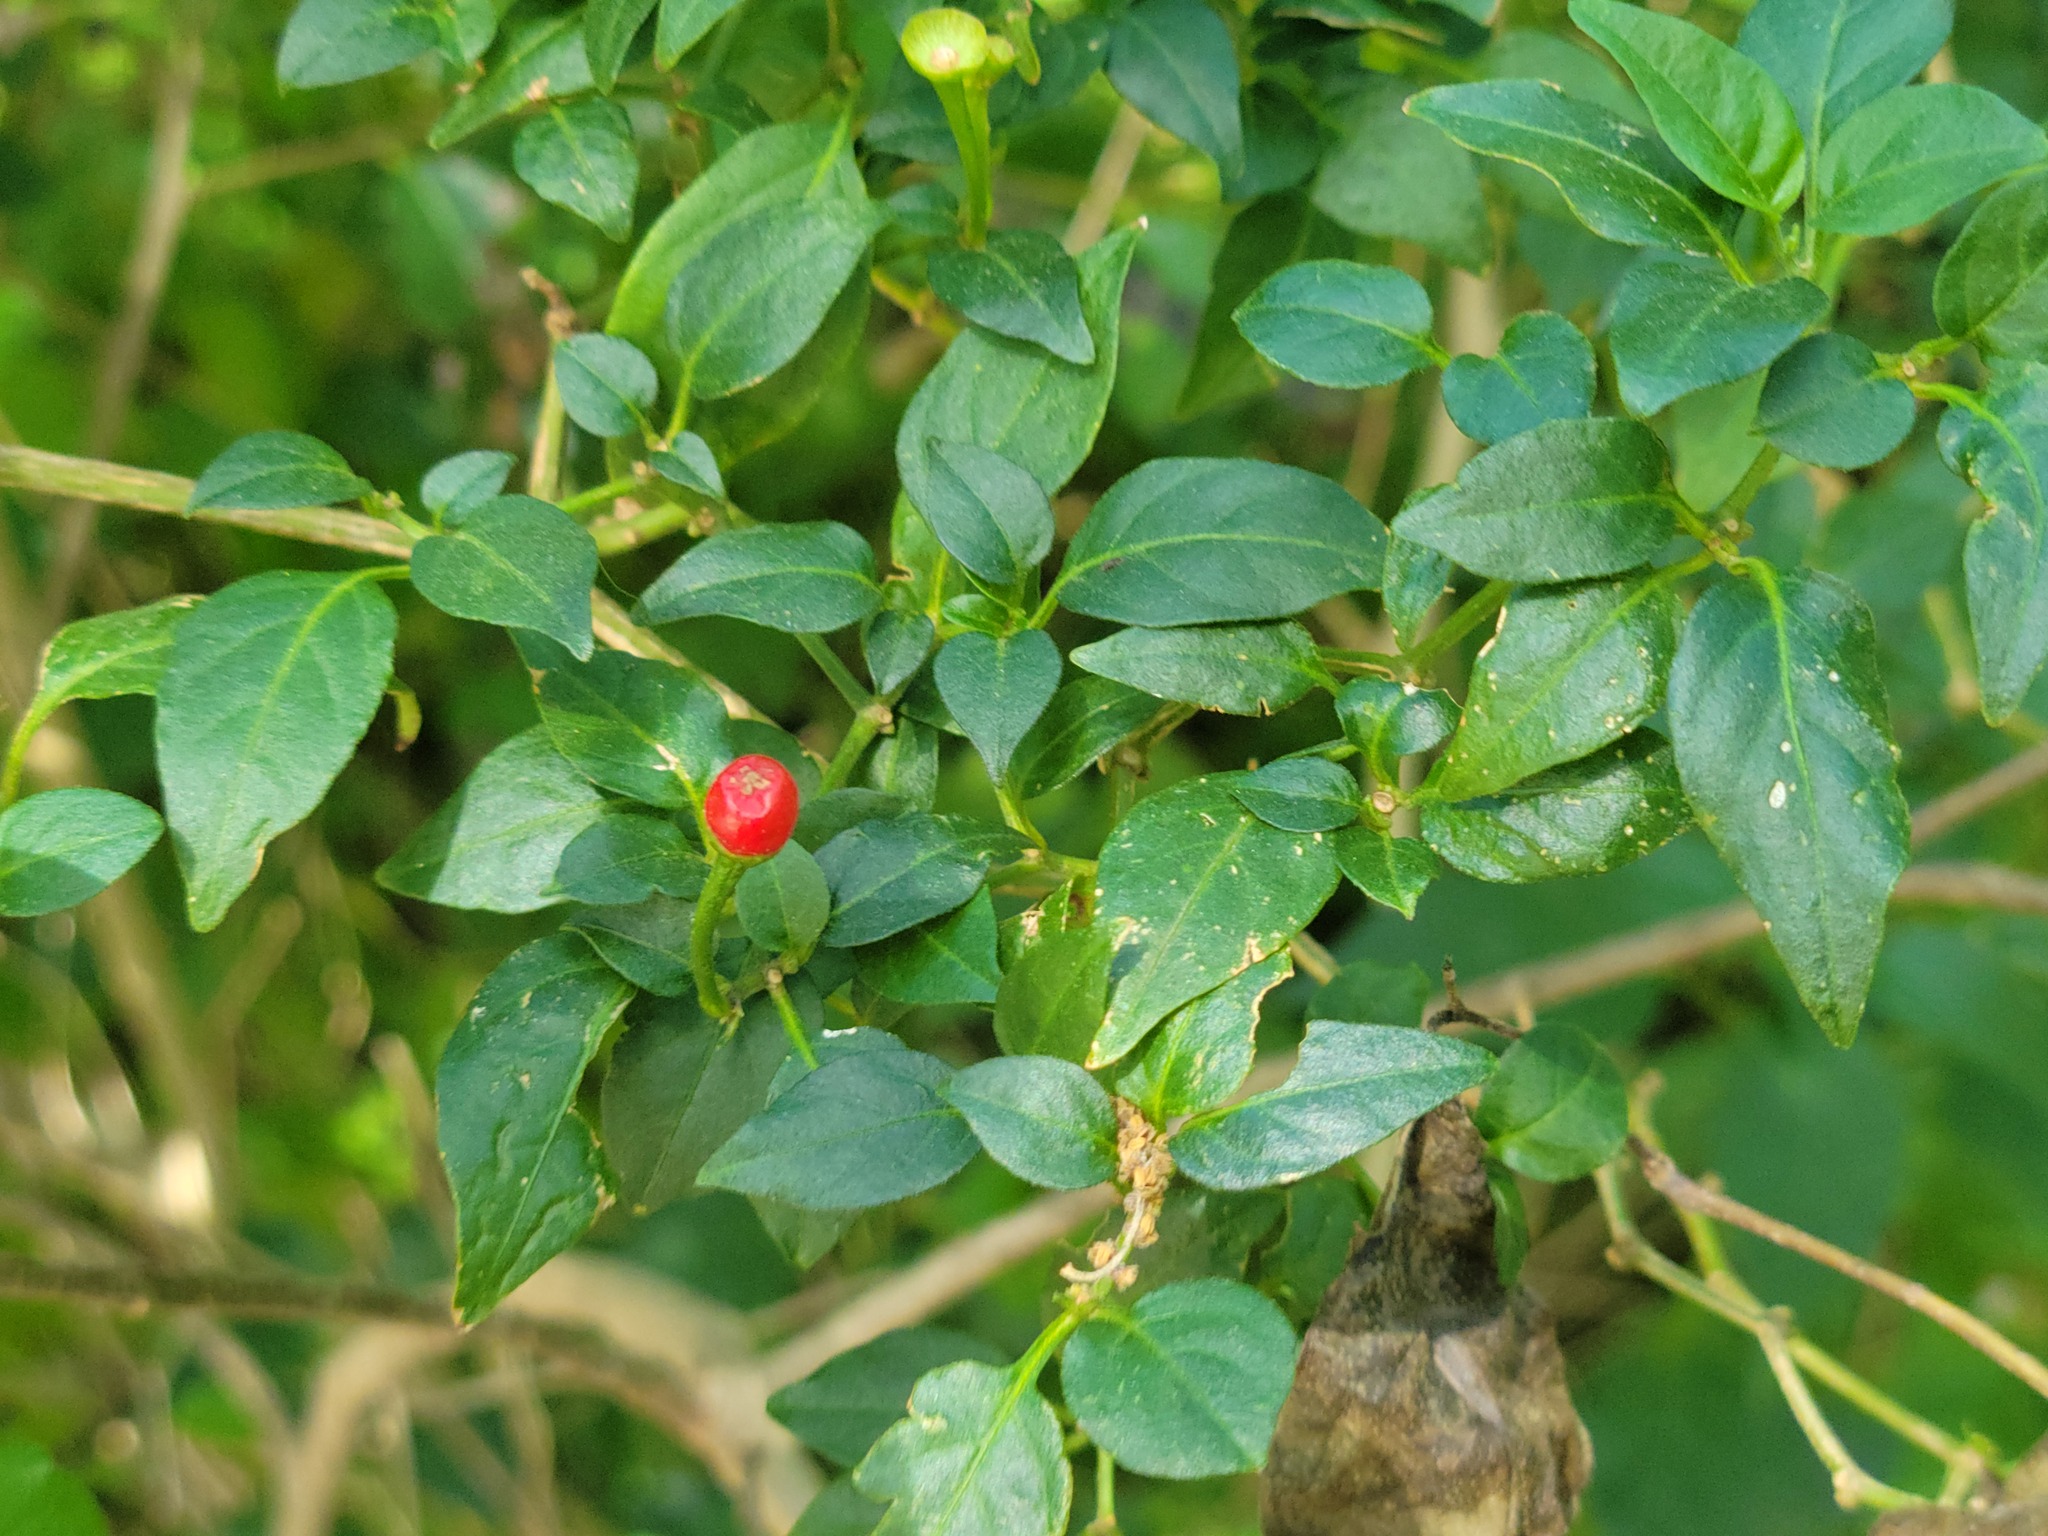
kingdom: Plantae
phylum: Tracheophyta
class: Magnoliopsida
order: Solanales
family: Solanaceae
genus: Capsicum
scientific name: Capsicum annuum
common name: Sweet pepper
